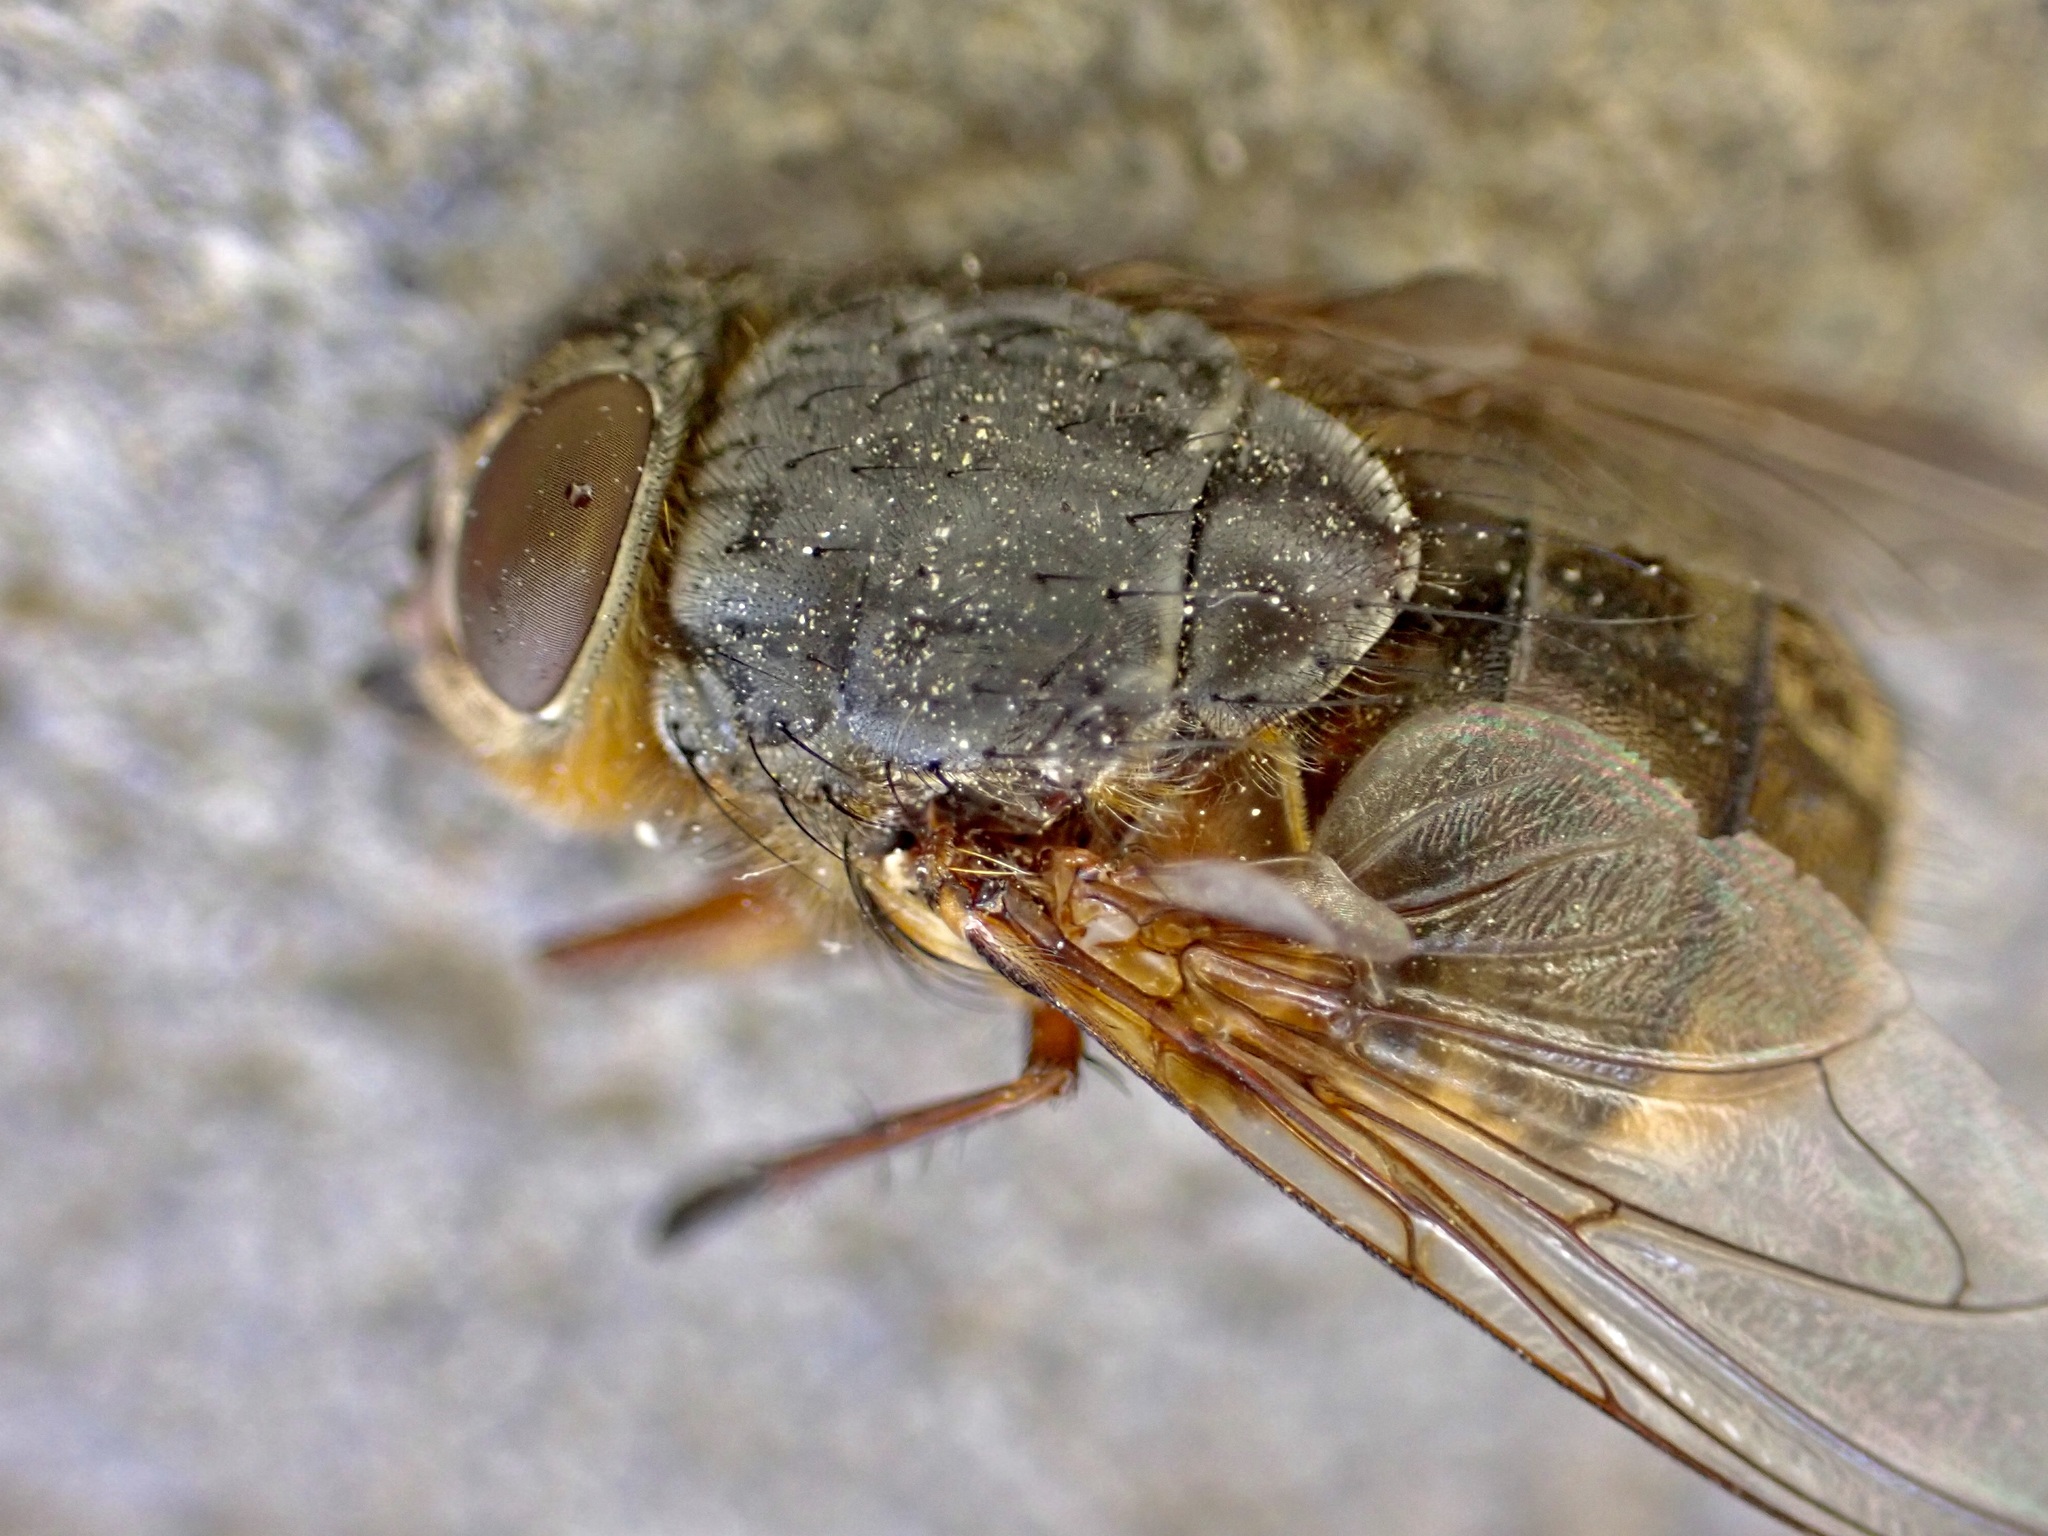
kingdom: Animalia
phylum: Arthropoda
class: Insecta
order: Diptera
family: Calliphoridae
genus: Calliphora
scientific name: Calliphora stygia
